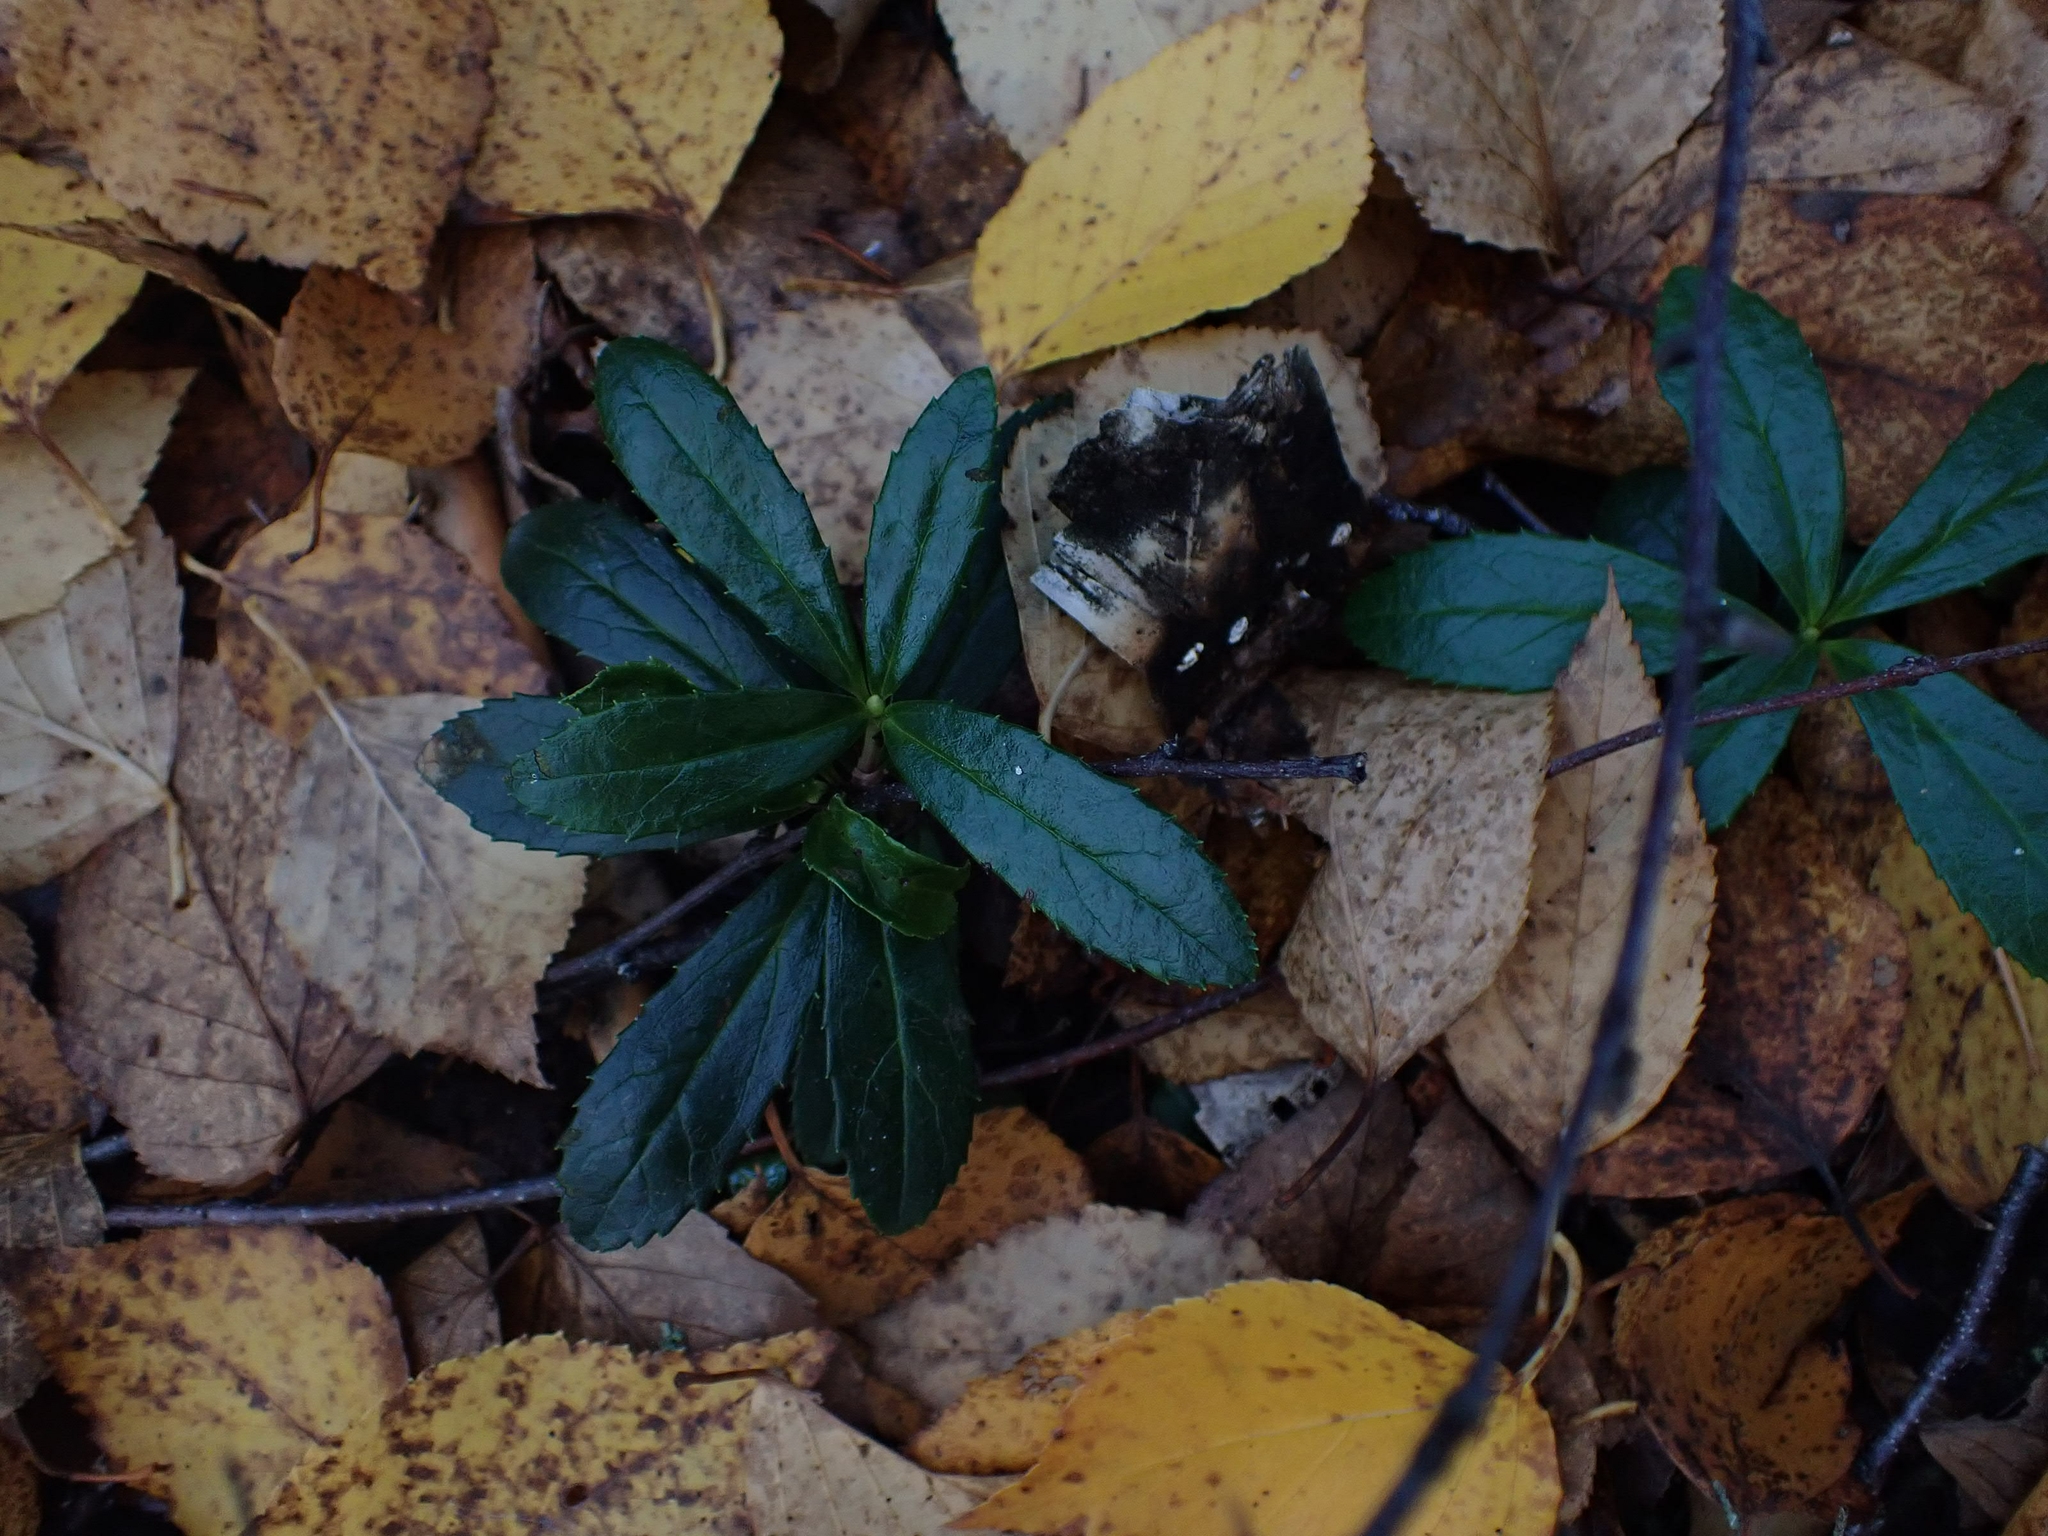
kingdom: Plantae
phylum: Tracheophyta
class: Magnoliopsida
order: Ericales
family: Ericaceae
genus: Chimaphila
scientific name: Chimaphila umbellata
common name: Pipsissewa
